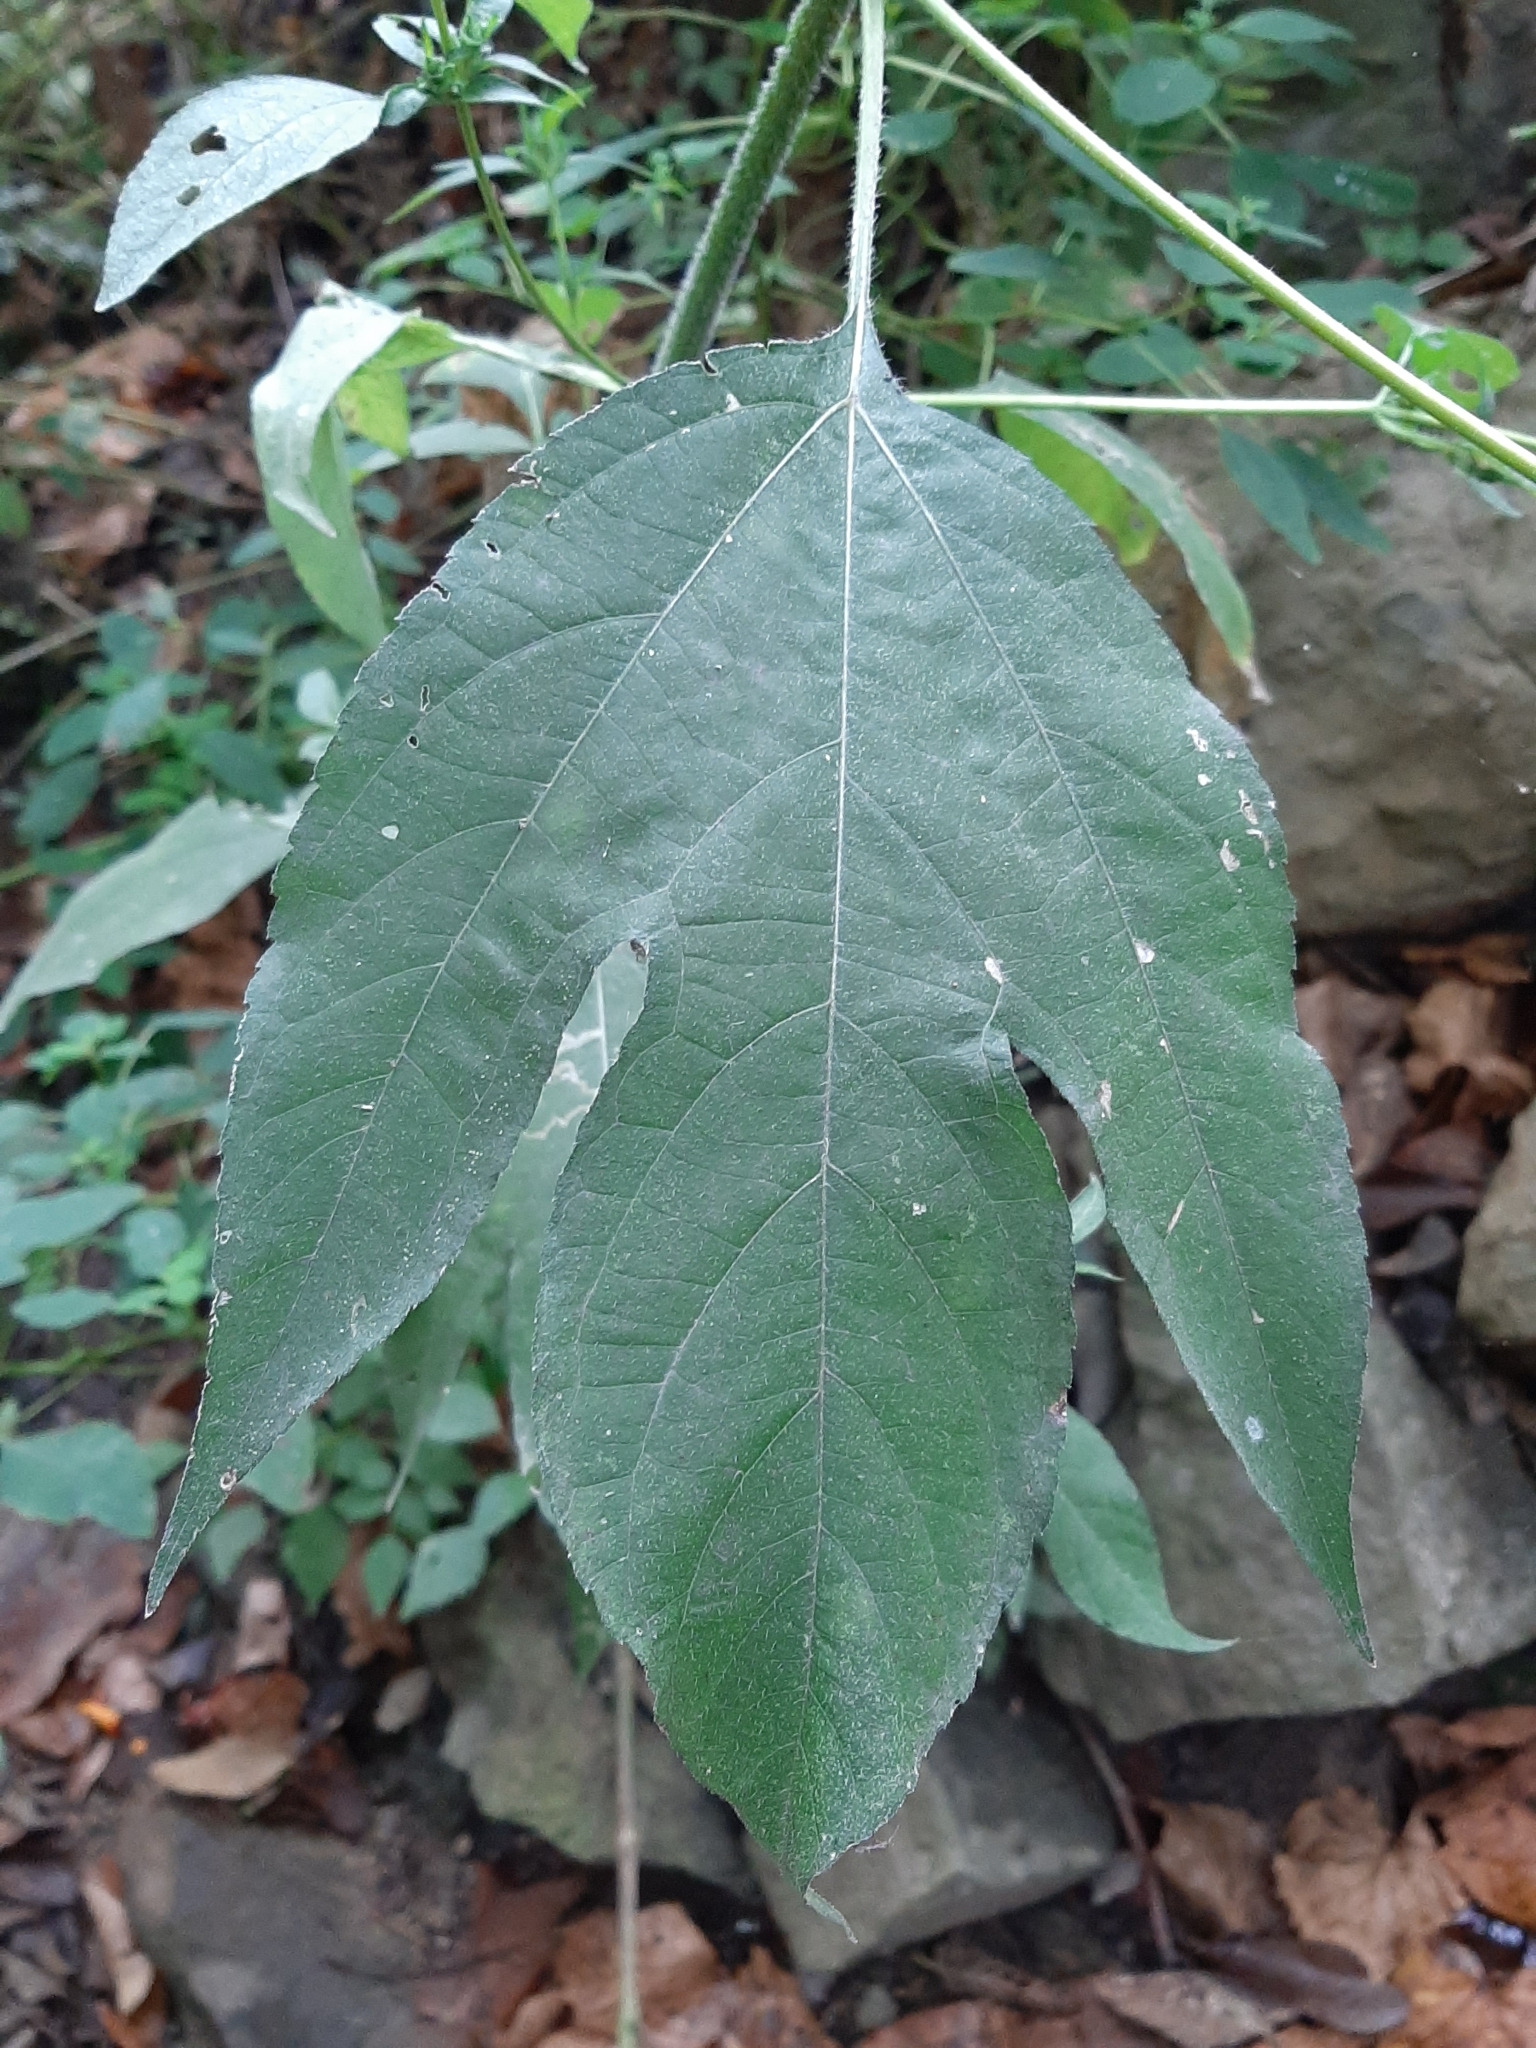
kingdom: Plantae
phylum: Tracheophyta
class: Magnoliopsida
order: Asterales
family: Asteraceae
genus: Ambrosia
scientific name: Ambrosia trifida
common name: Giant ragweed
